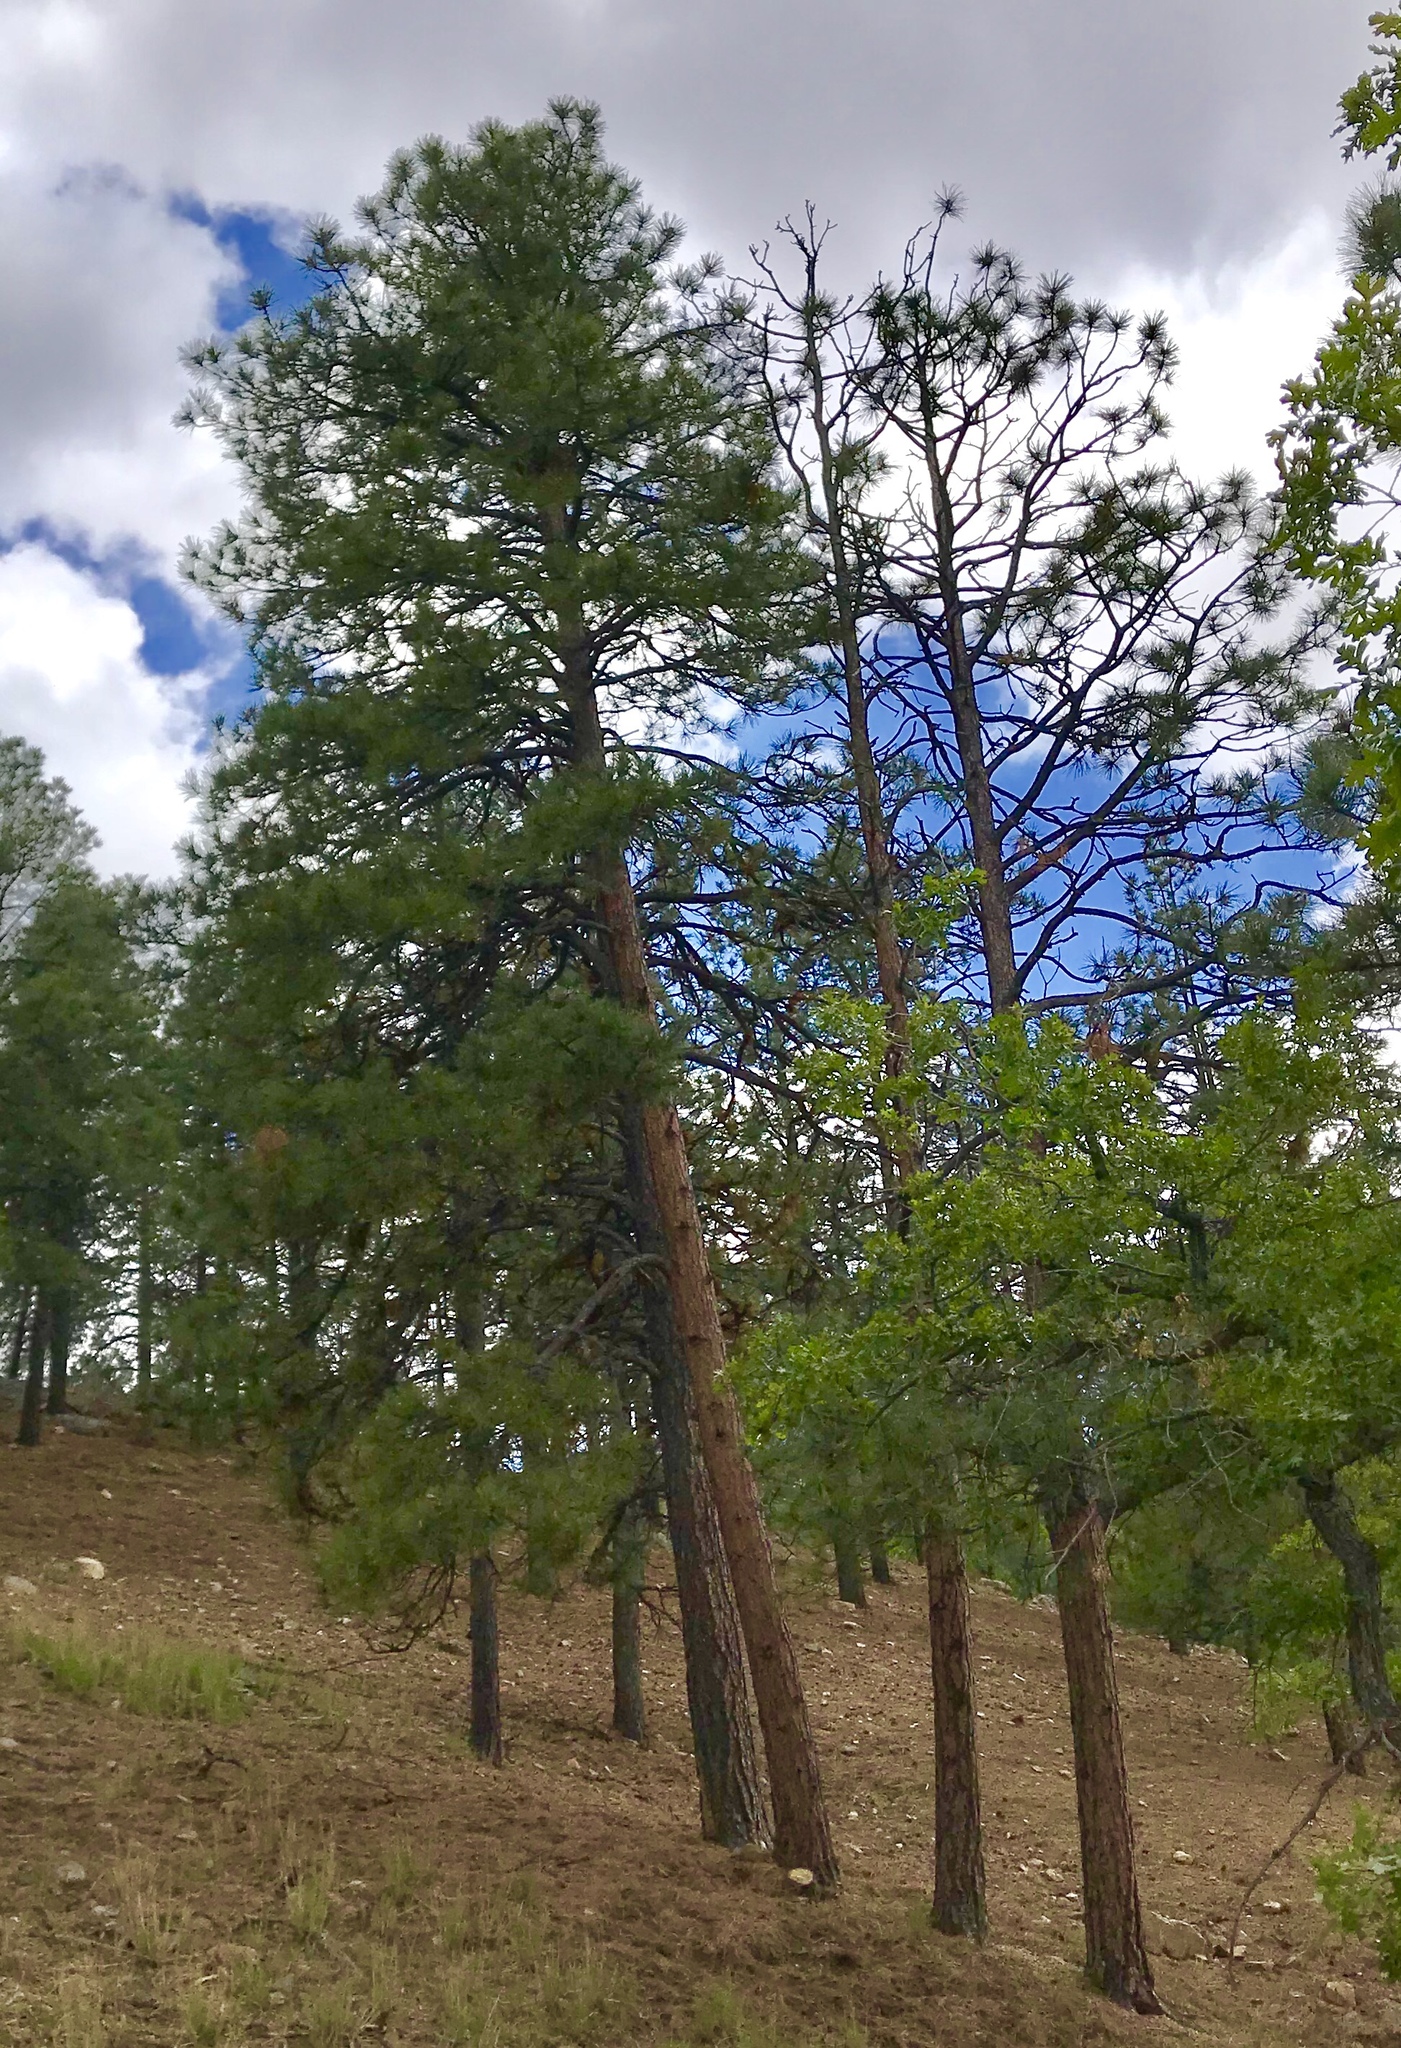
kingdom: Plantae
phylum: Tracheophyta
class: Pinopsida
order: Pinales
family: Pinaceae
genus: Pinus
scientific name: Pinus ponderosa
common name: Western yellow-pine
